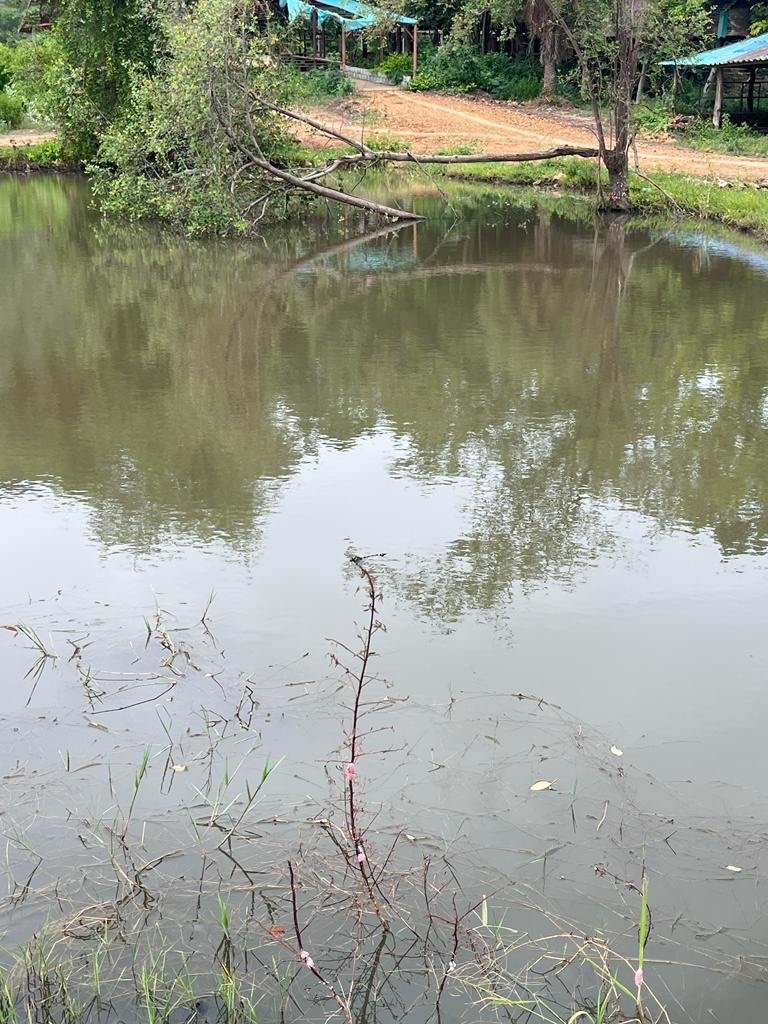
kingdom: Animalia
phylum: Arthropoda
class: Insecta
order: Odonata
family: Gomphidae
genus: Ictinogomphus
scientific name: Ictinogomphus decoratus
